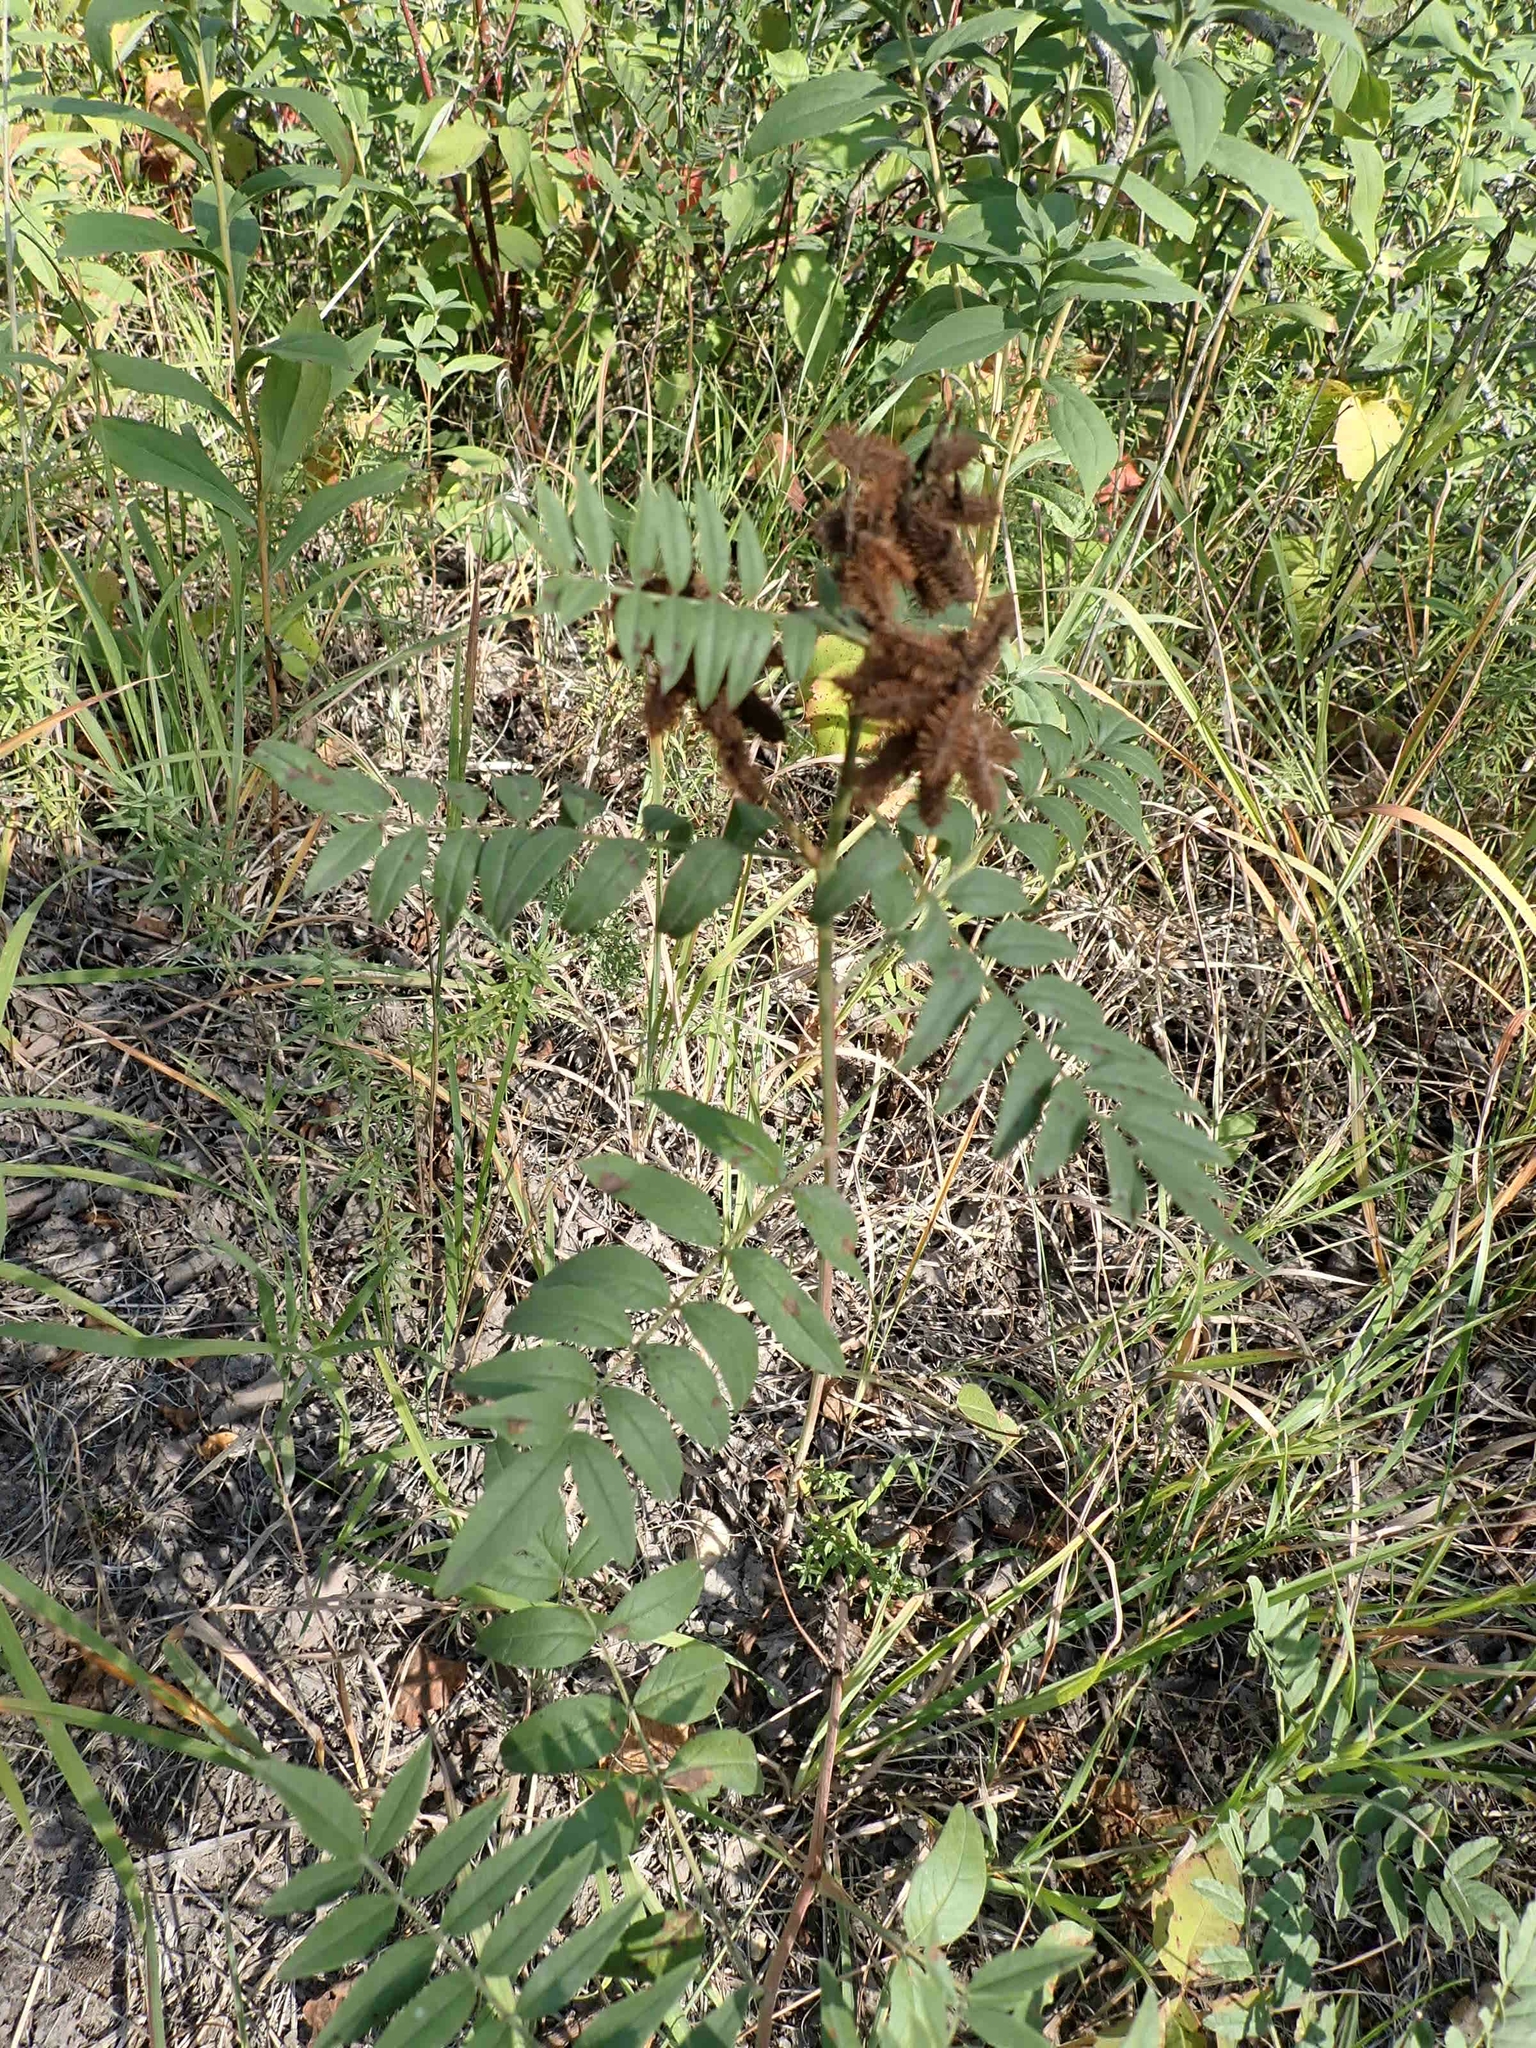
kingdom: Plantae
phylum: Tracheophyta
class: Magnoliopsida
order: Fabales
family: Fabaceae
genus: Glycyrrhiza
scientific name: Glycyrrhiza lepidota
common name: American liquorice
